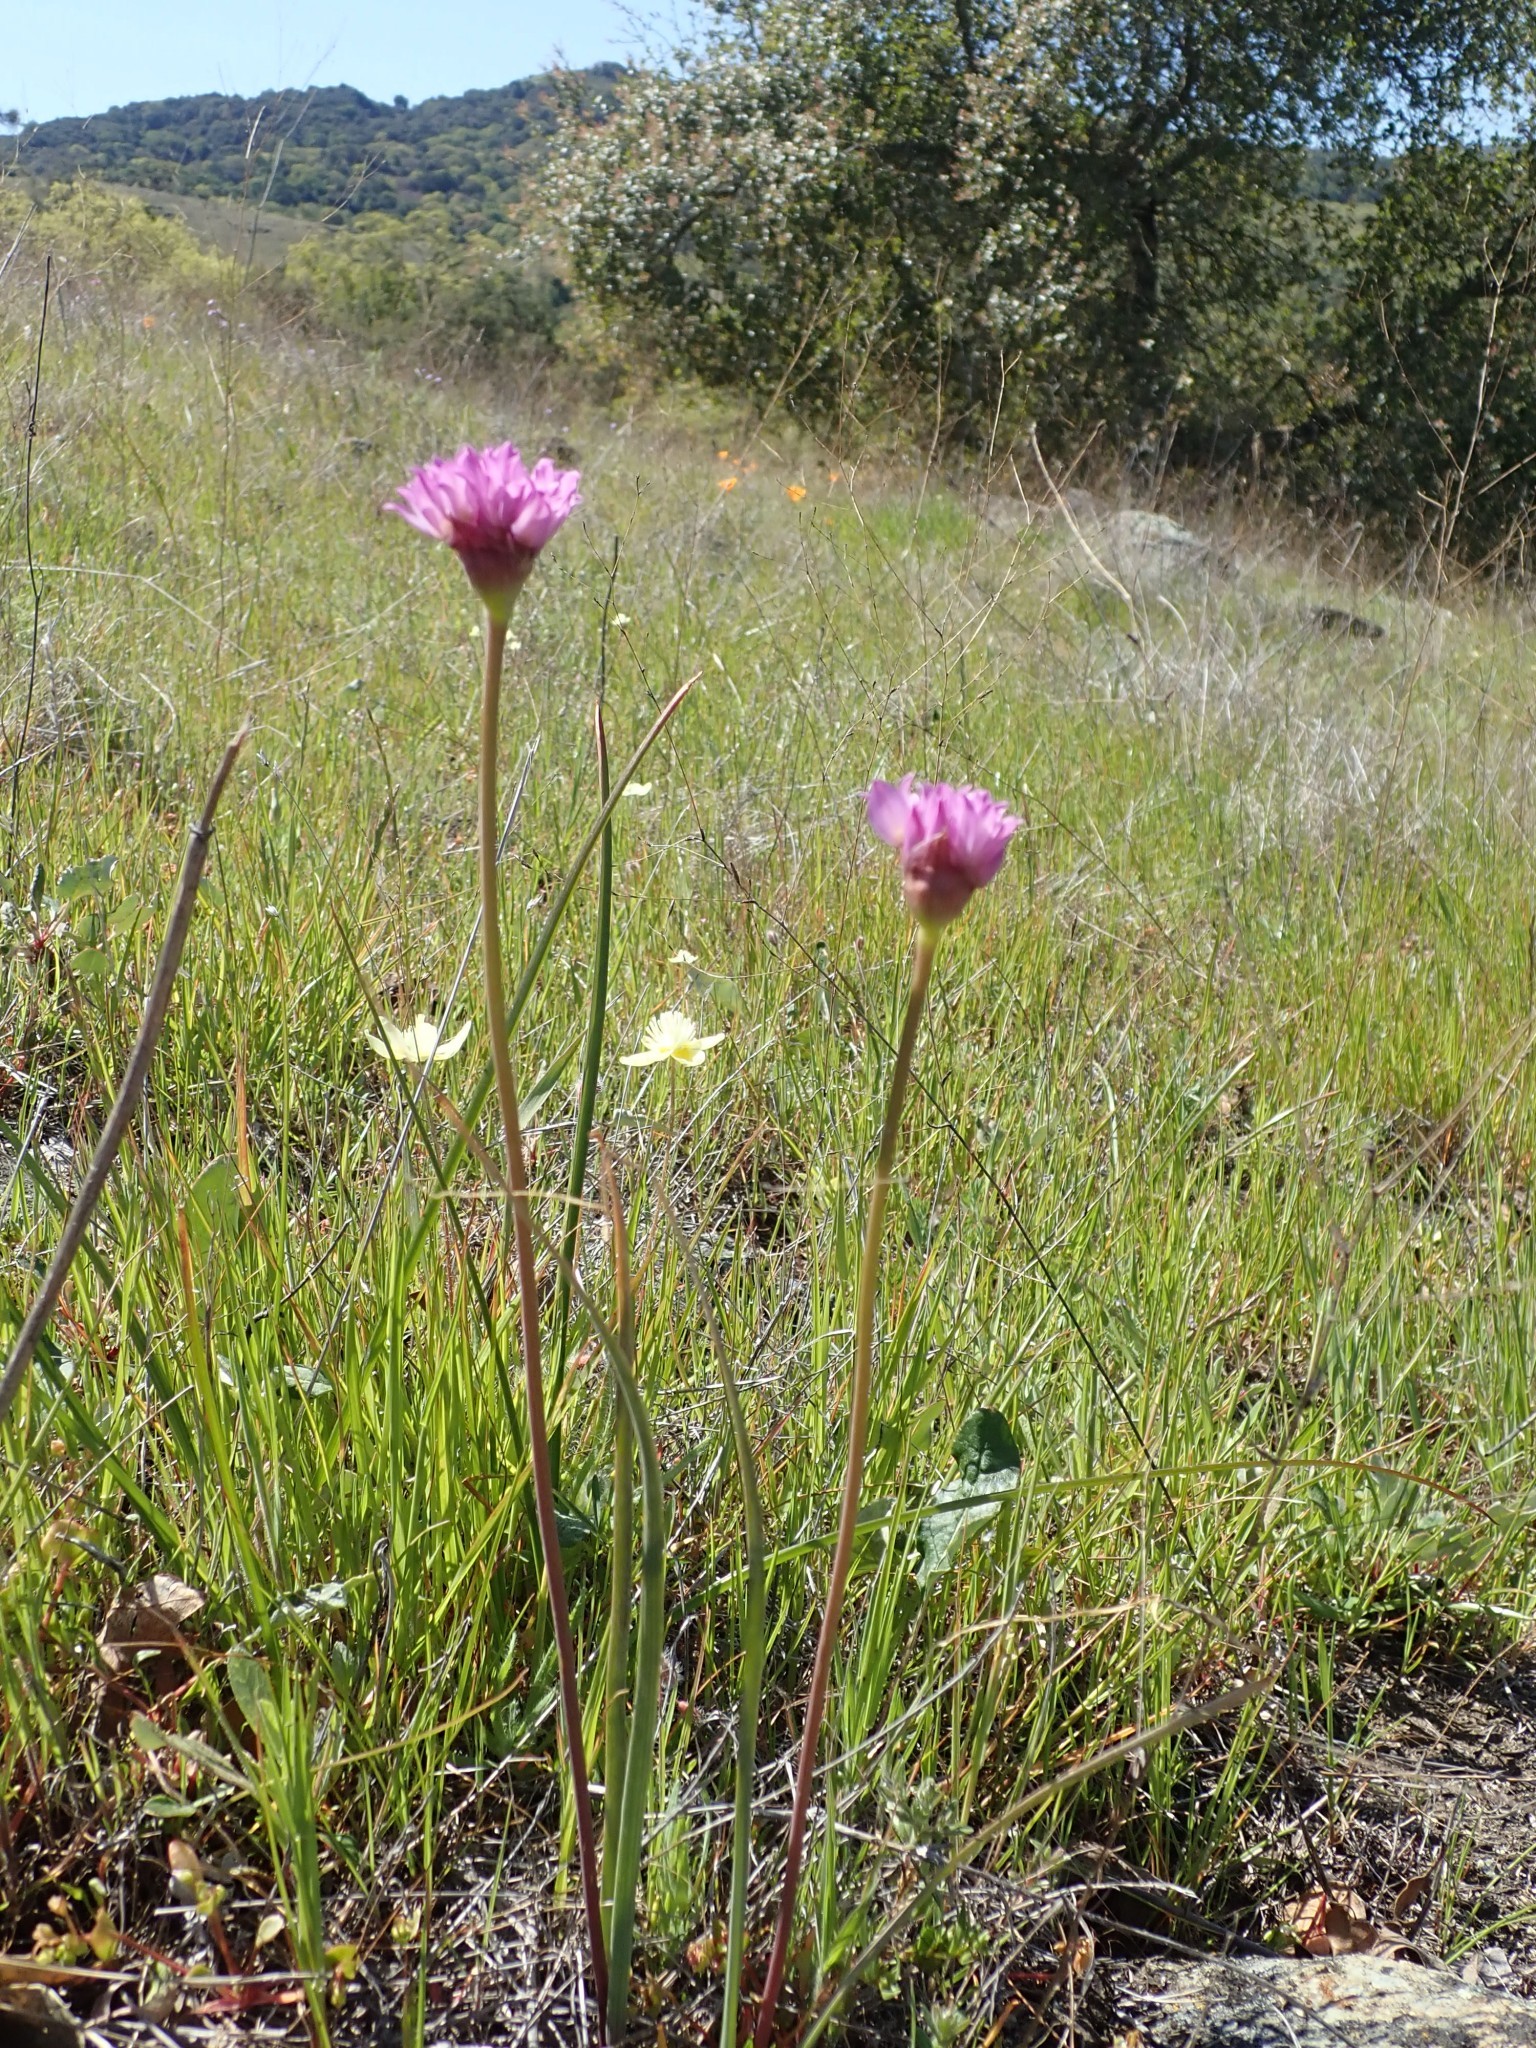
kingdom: Plantae
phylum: Tracheophyta
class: Liliopsida
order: Asparagales
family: Amaryllidaceae
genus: Allium
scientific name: Allium serra
